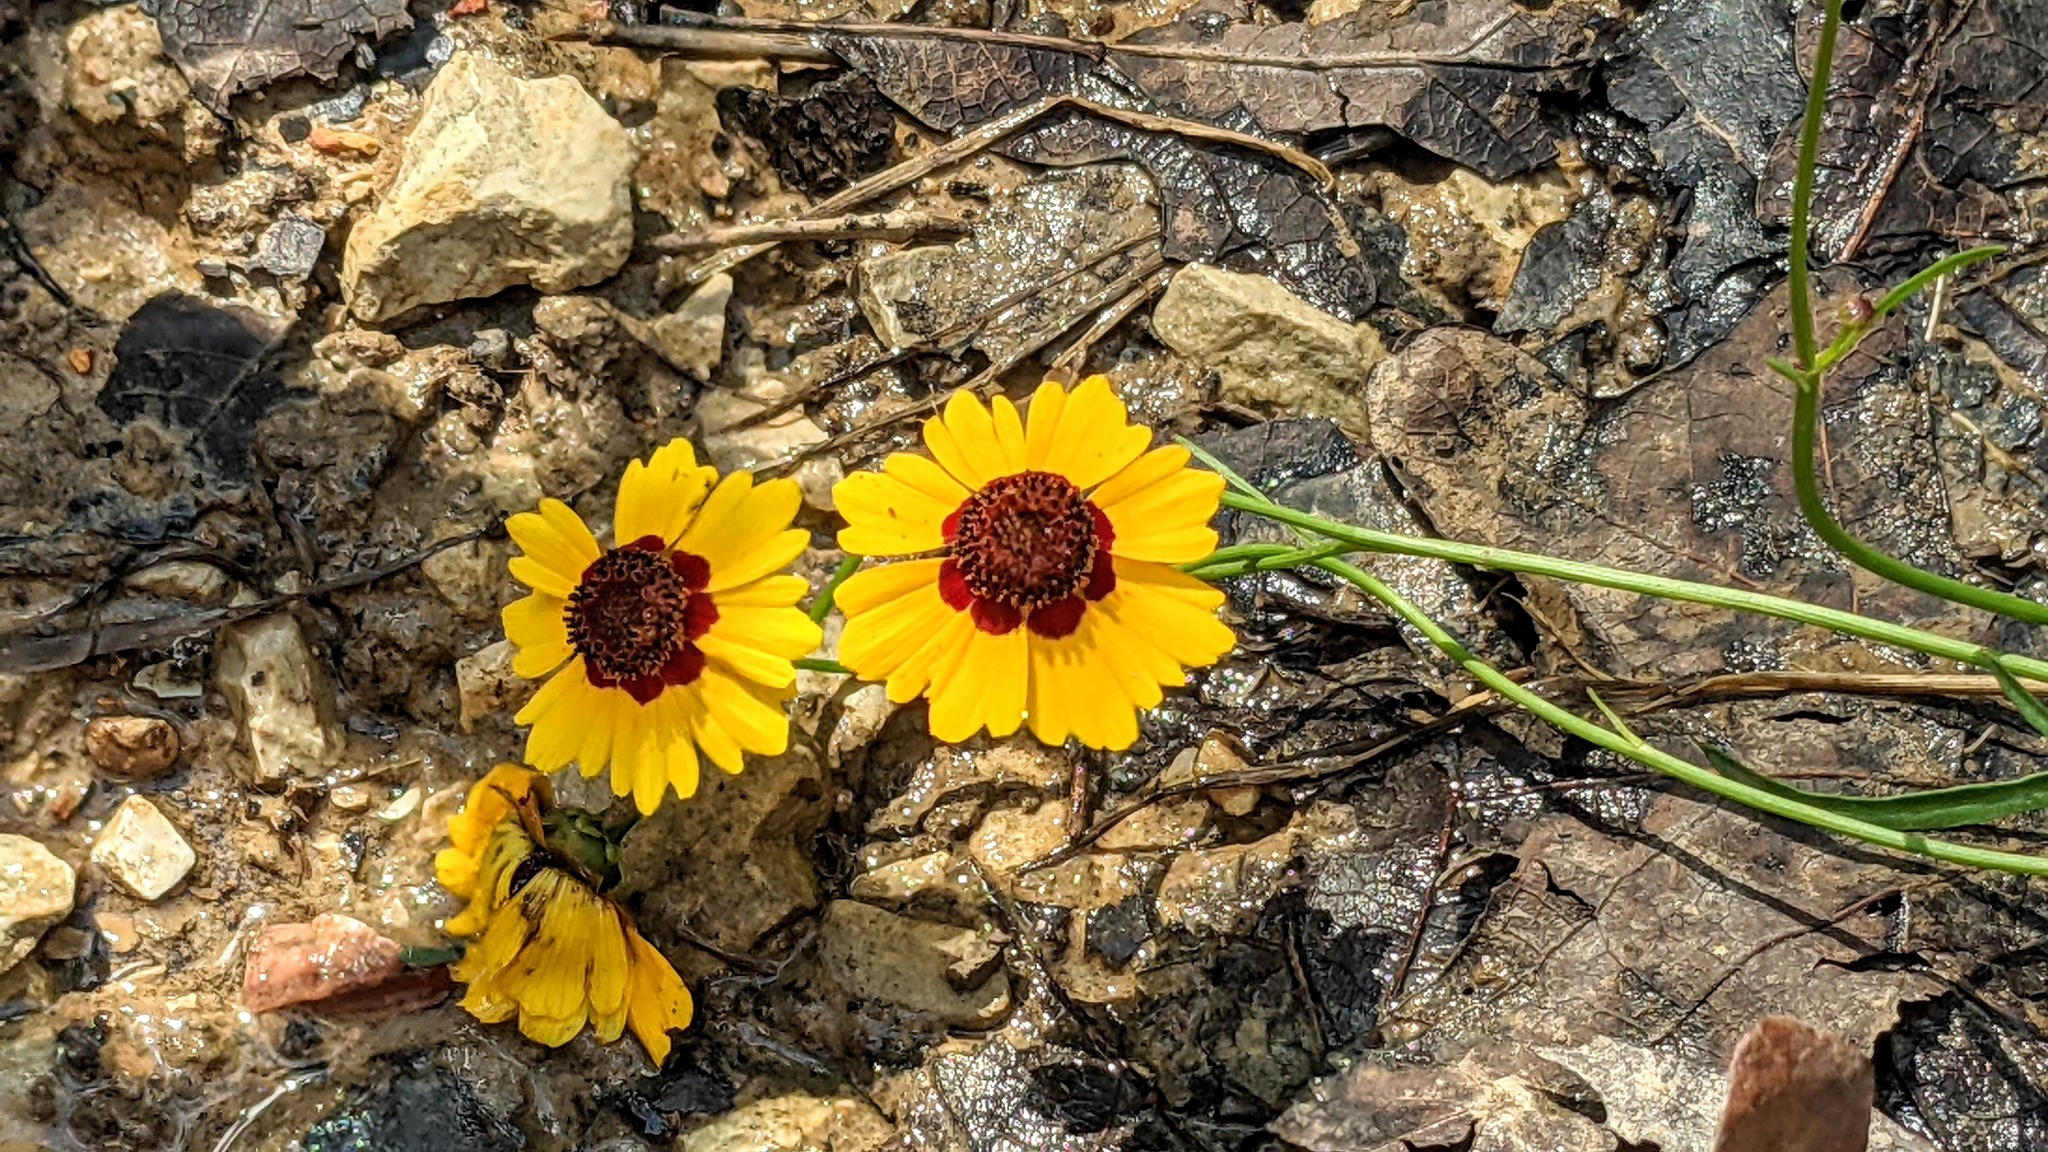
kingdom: Plantae
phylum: Tracheophyta
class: Magnoliopsida
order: Asterales
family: Asteraceae
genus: Coreopsis
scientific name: Coreopsis tinctoria
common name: Garden tickseed
